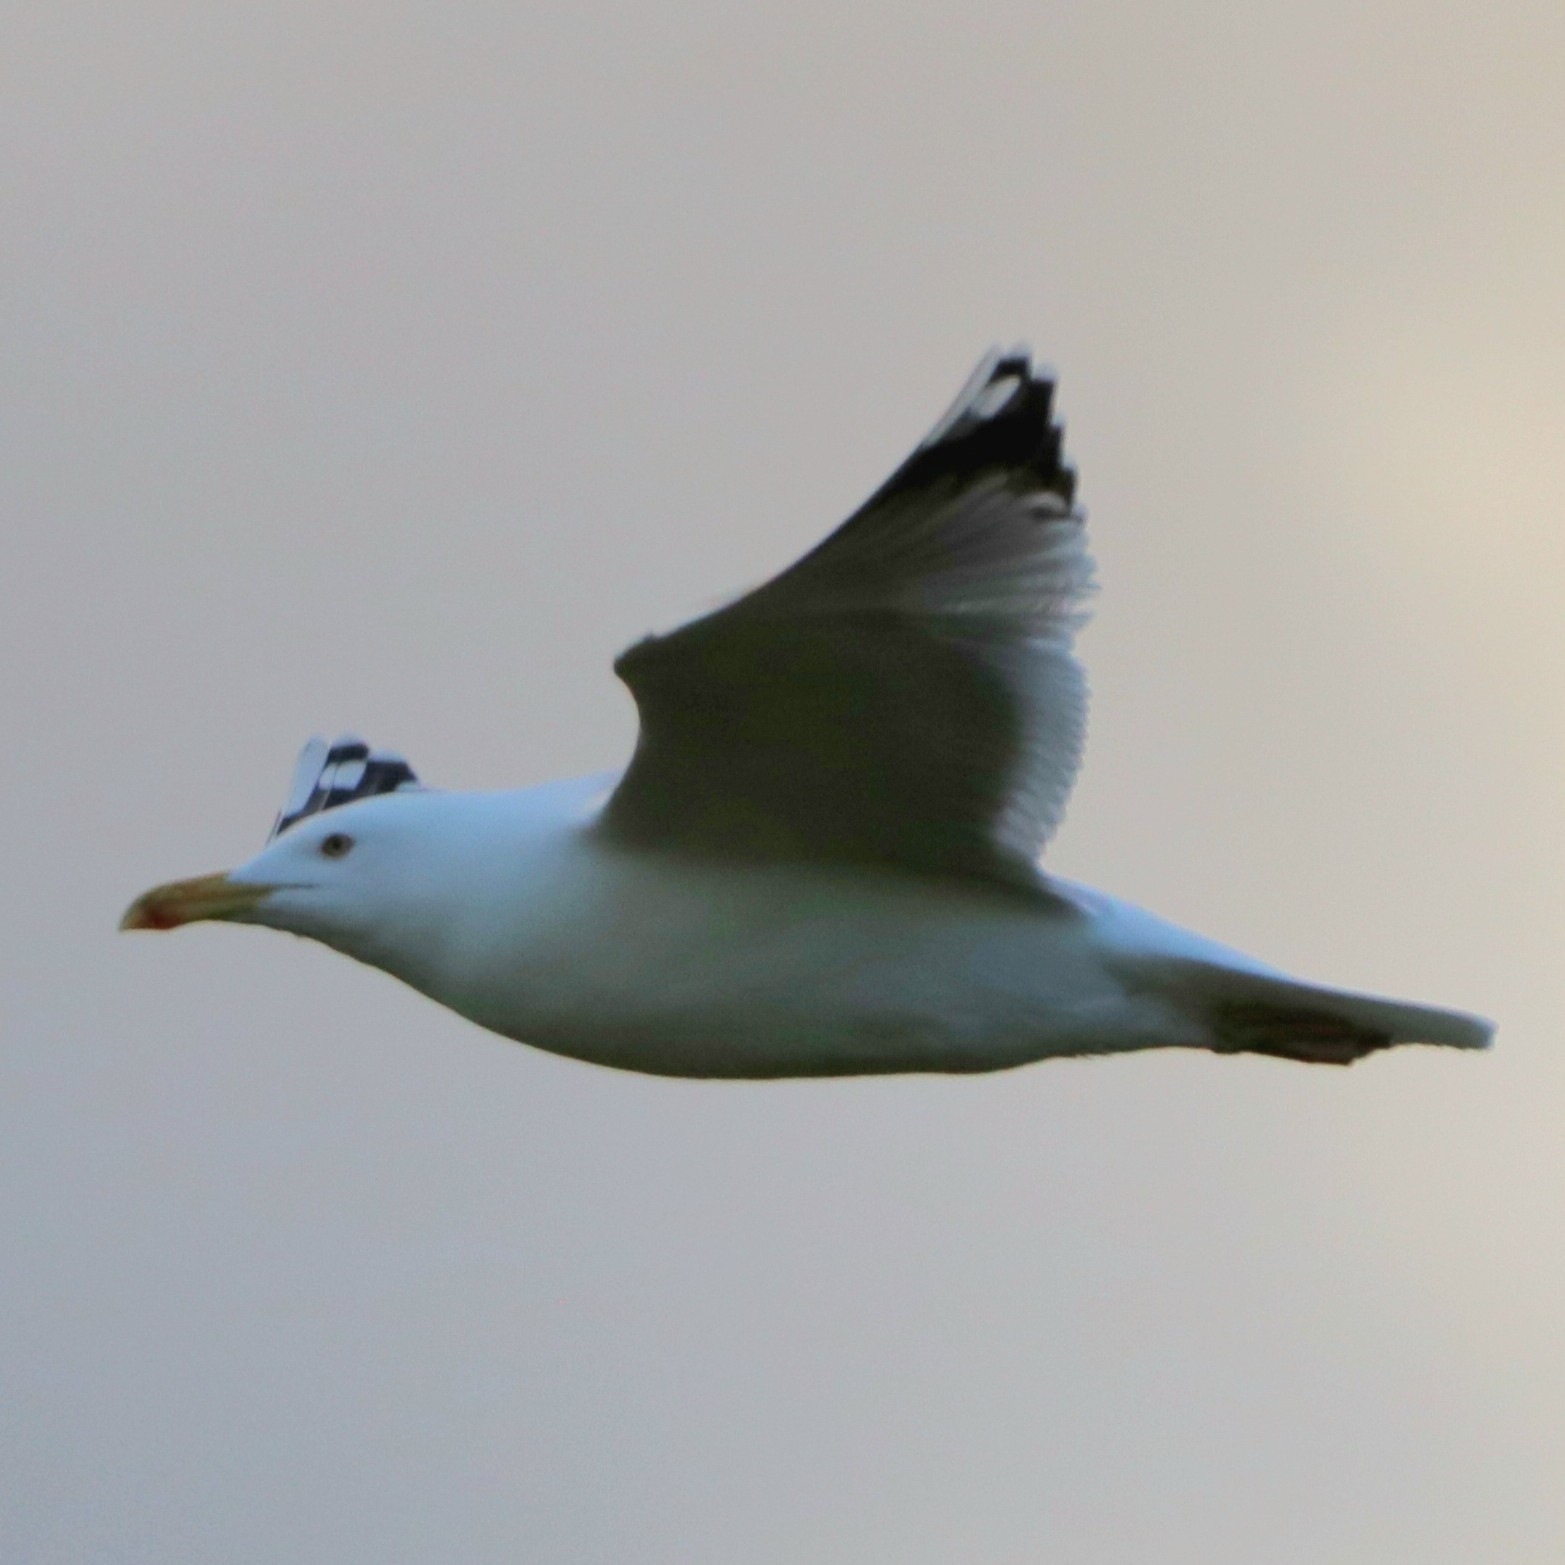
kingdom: Animalia
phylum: Chordata
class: Aves
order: Charadriiformes
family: Laridae
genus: Larus
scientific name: Larus michahellis
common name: Yellow-legged gull
